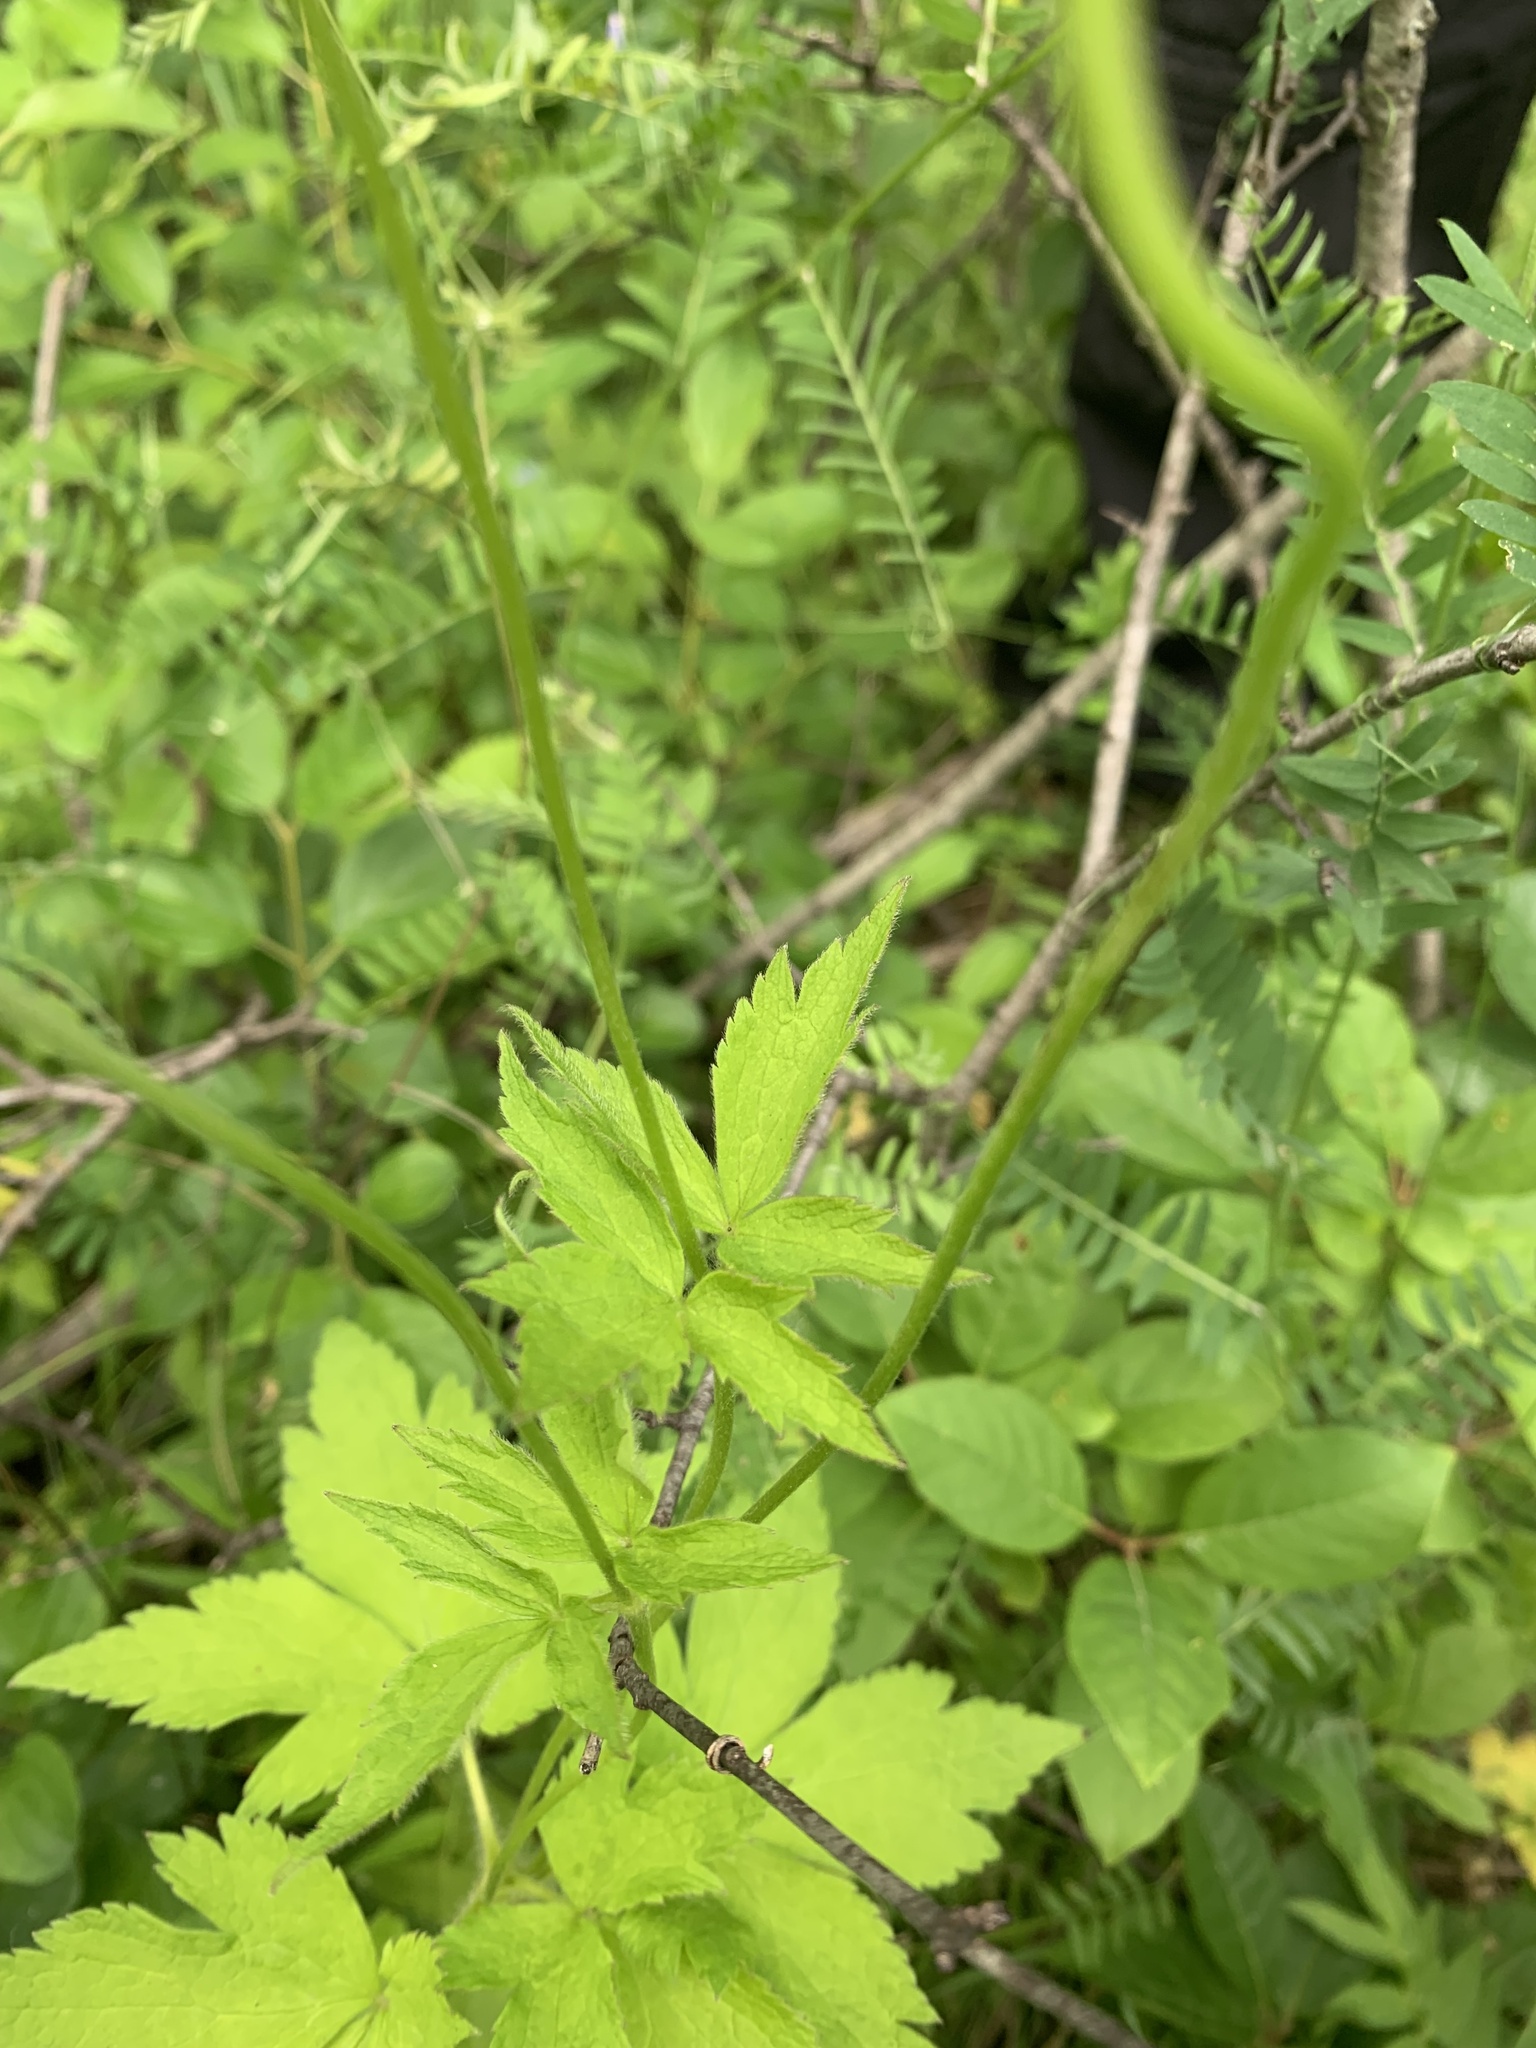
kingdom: Plantae
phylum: Tracheophyta
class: Magnoliopsida
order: Ranunculales
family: Ranunculaceae
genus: Anemone
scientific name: Anemone virginiana
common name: Tall anemone
